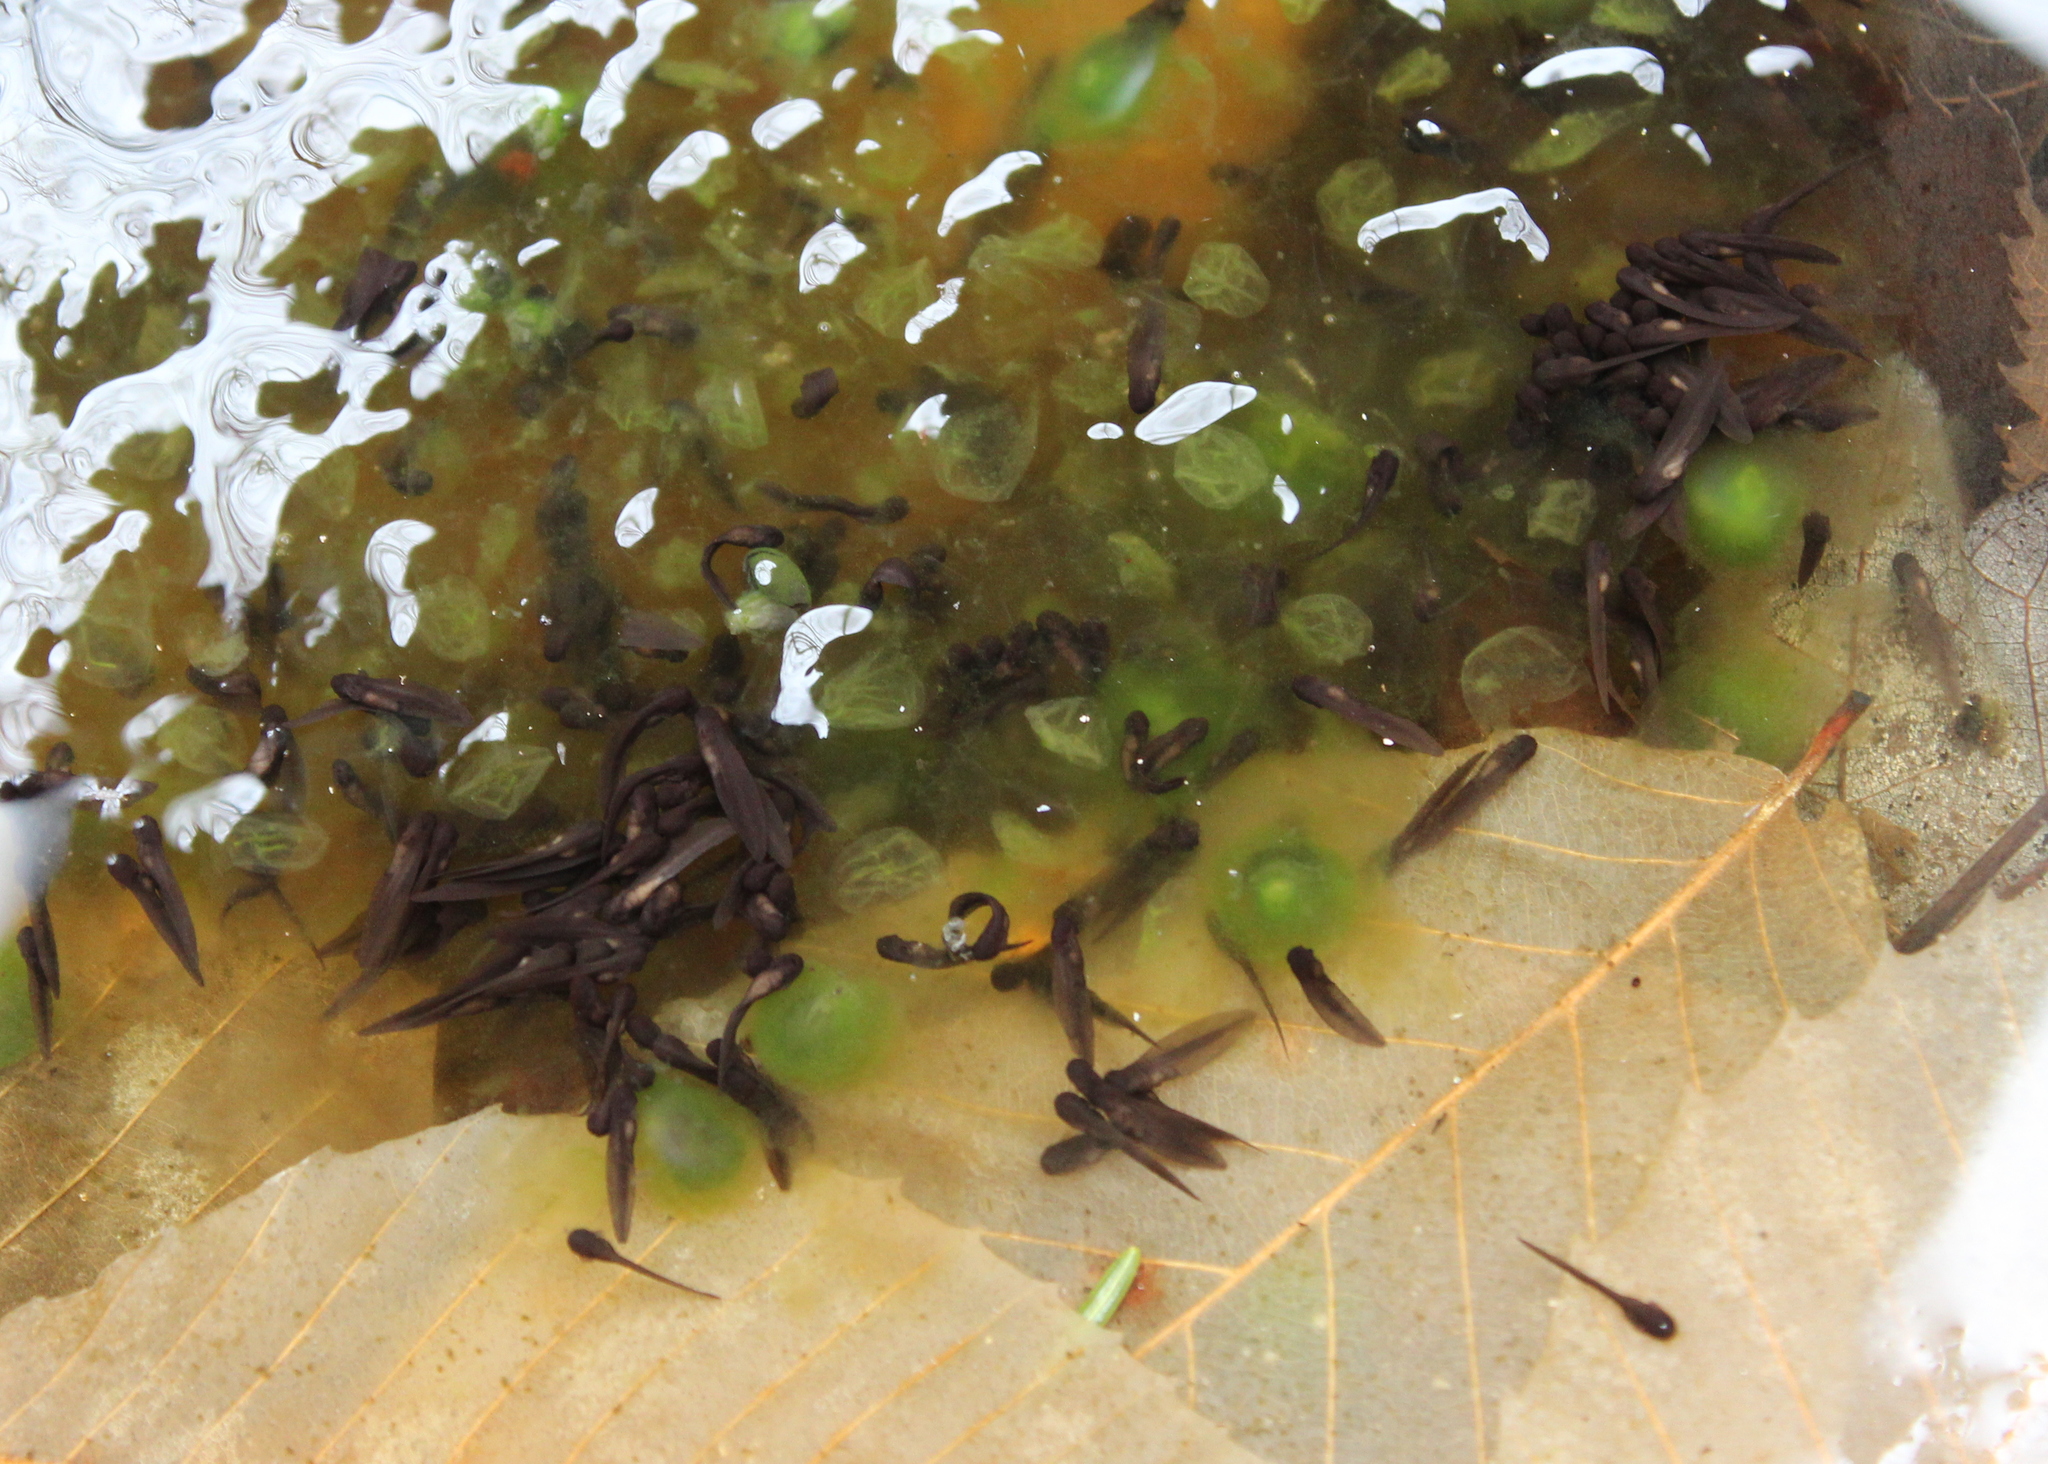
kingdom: Animalia
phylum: Chordata
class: Amphibia
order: Anura
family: Ranidae
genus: Lithobates
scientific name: Lithobates sylvaticus
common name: Wood frog
